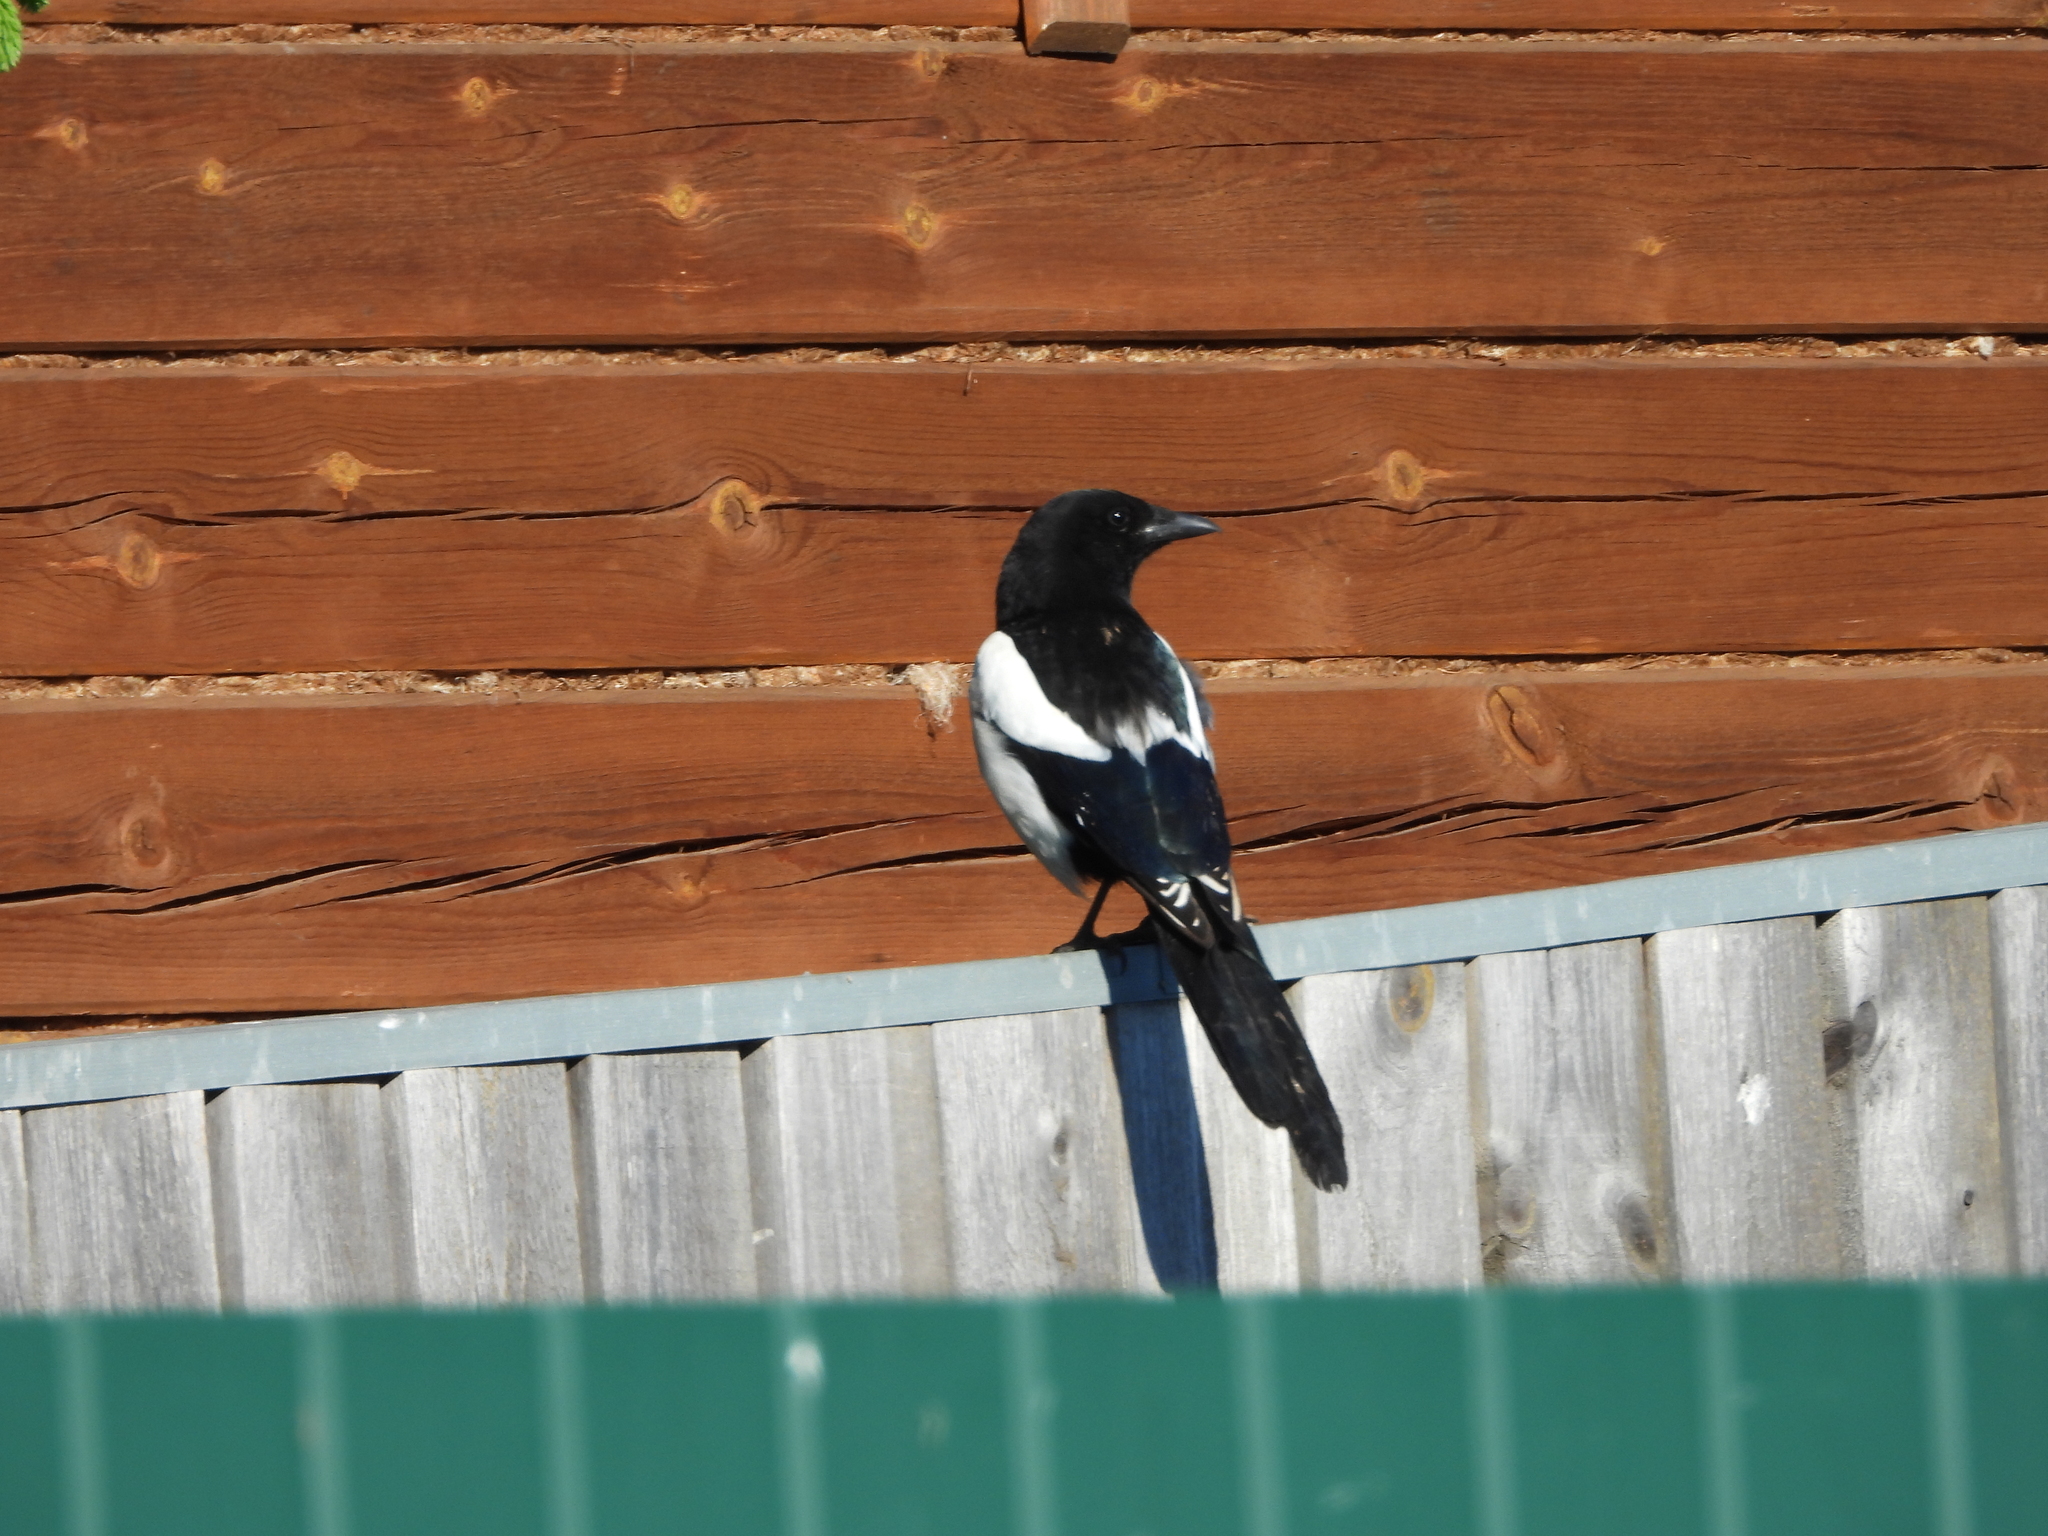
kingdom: Animalia
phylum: Chordata
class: Aves
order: Passeriformes
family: Corvidae
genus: Pica
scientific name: Pica pica
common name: Eurasian magpie
